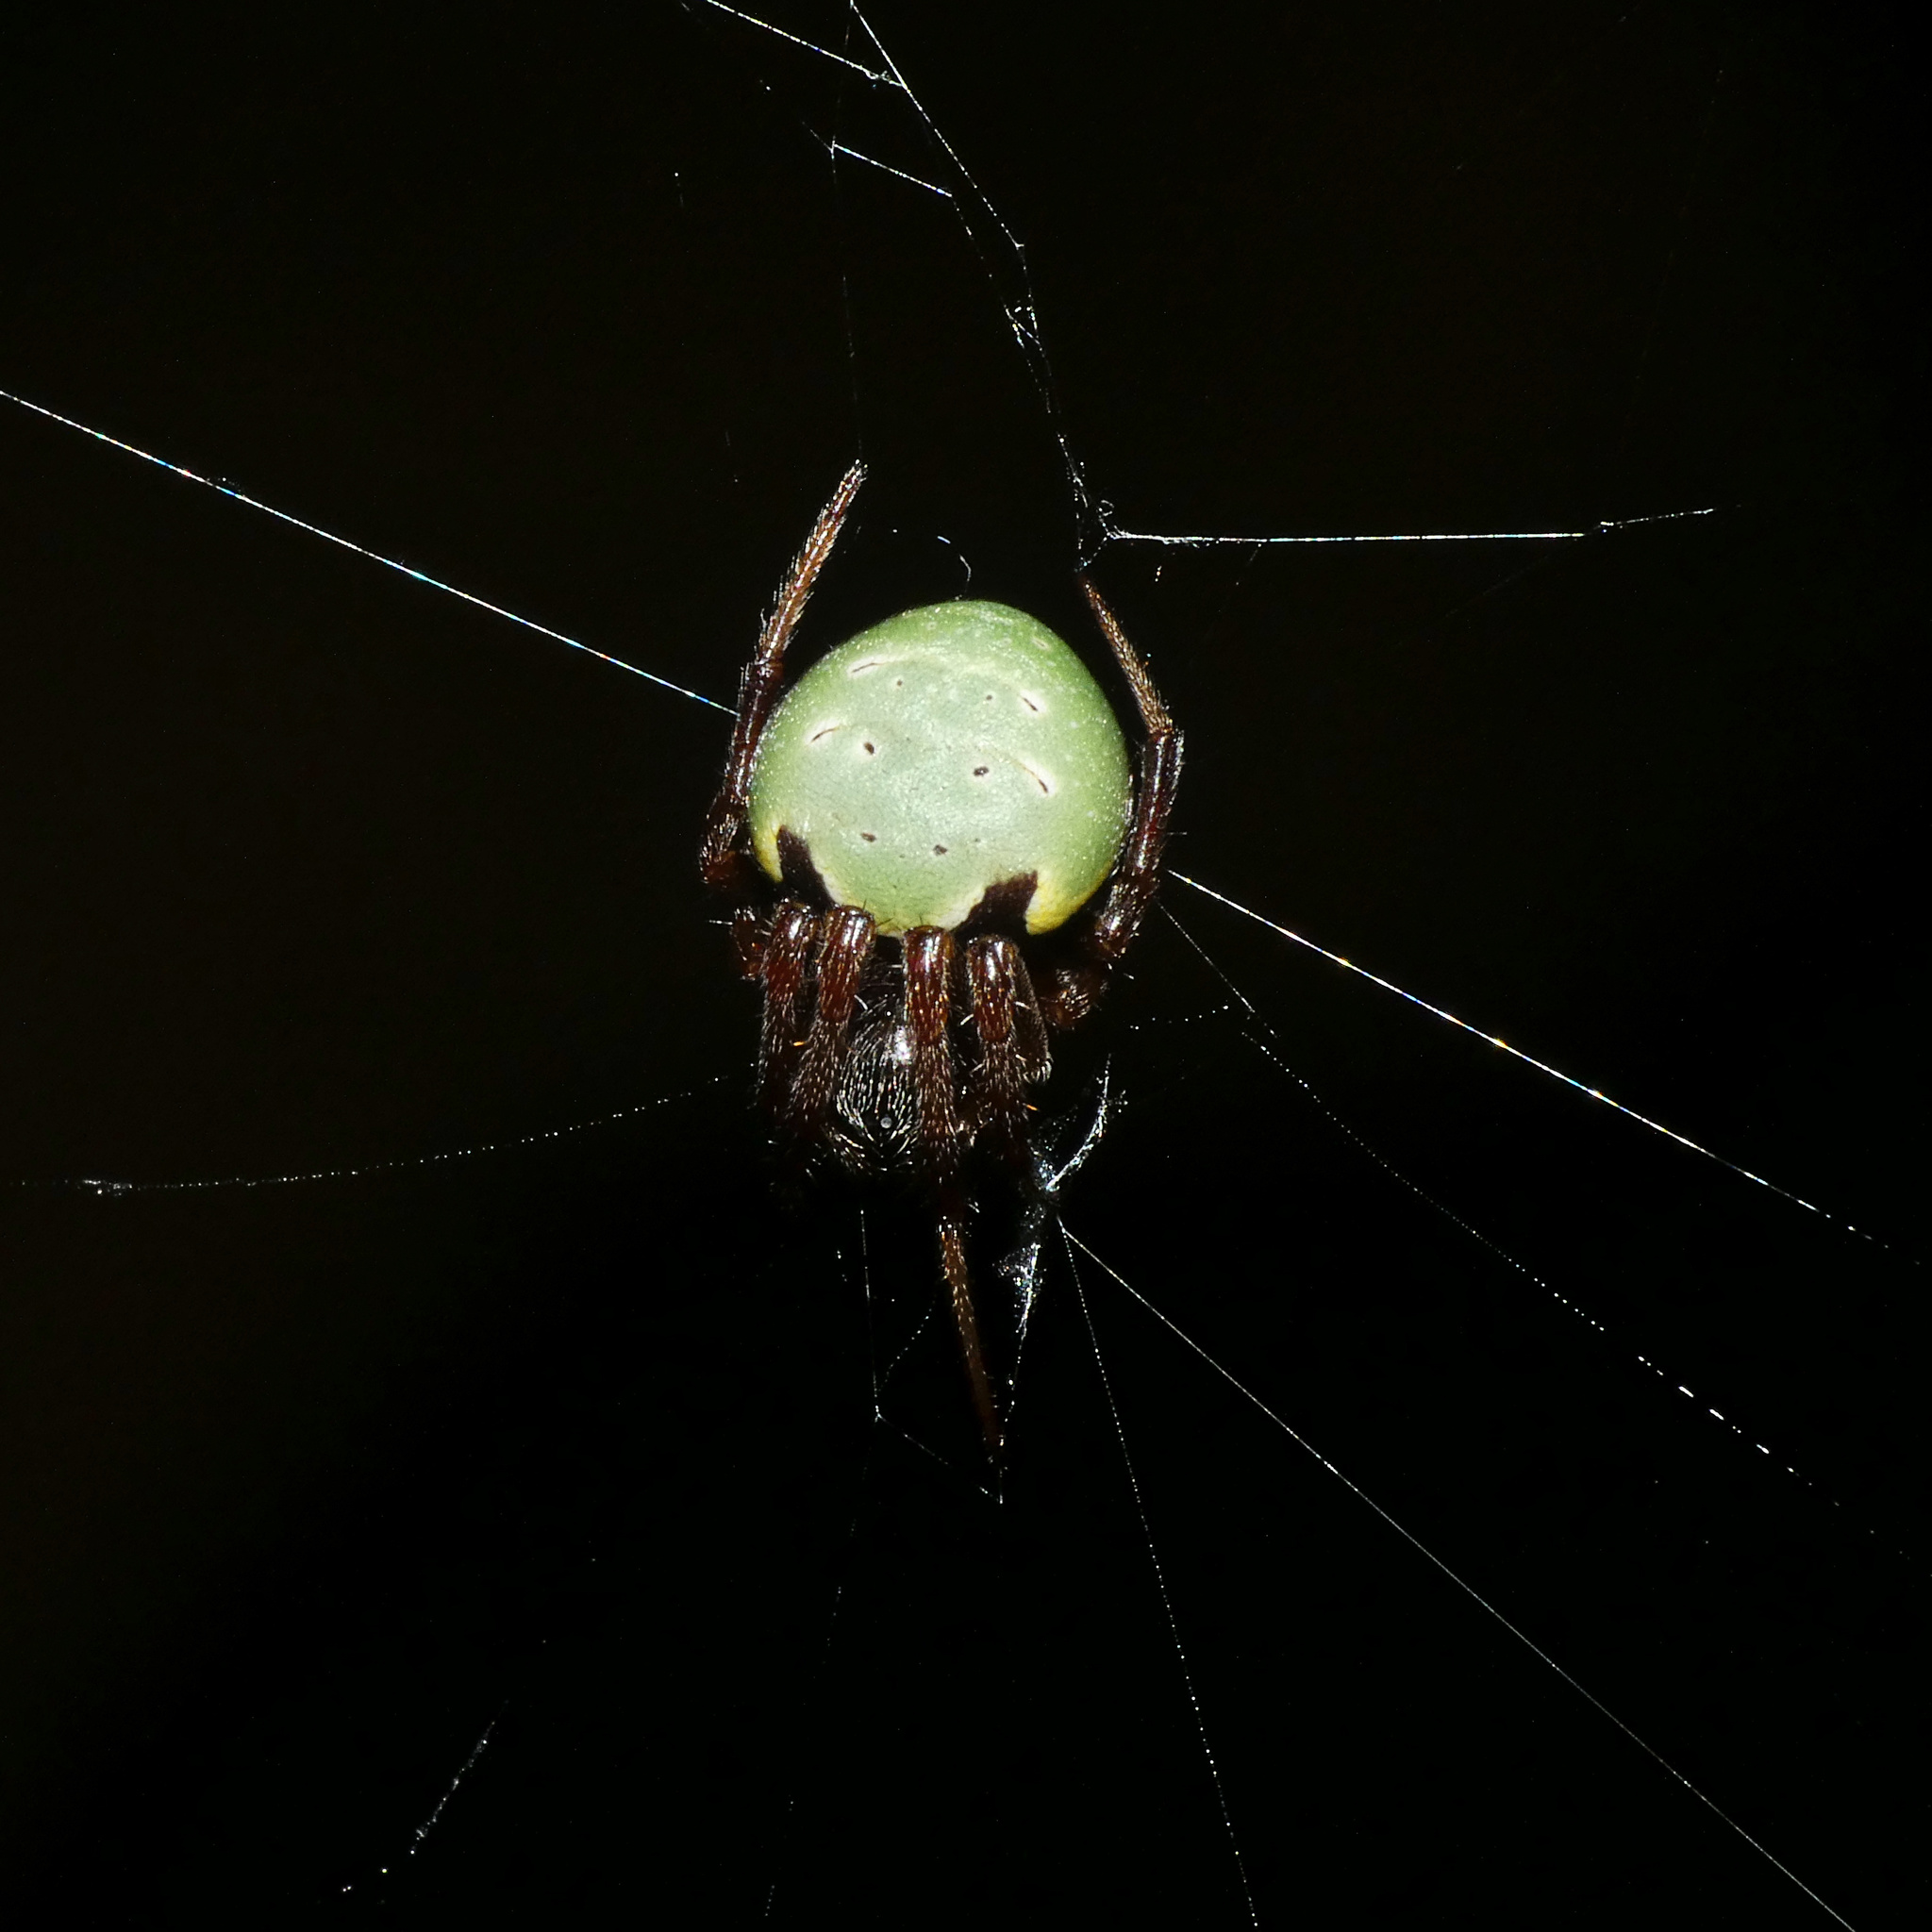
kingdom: Animalia
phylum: Arthropoda
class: Arachnida
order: Araneae
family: Araneidae
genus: Araneus
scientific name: Araneus apricus
